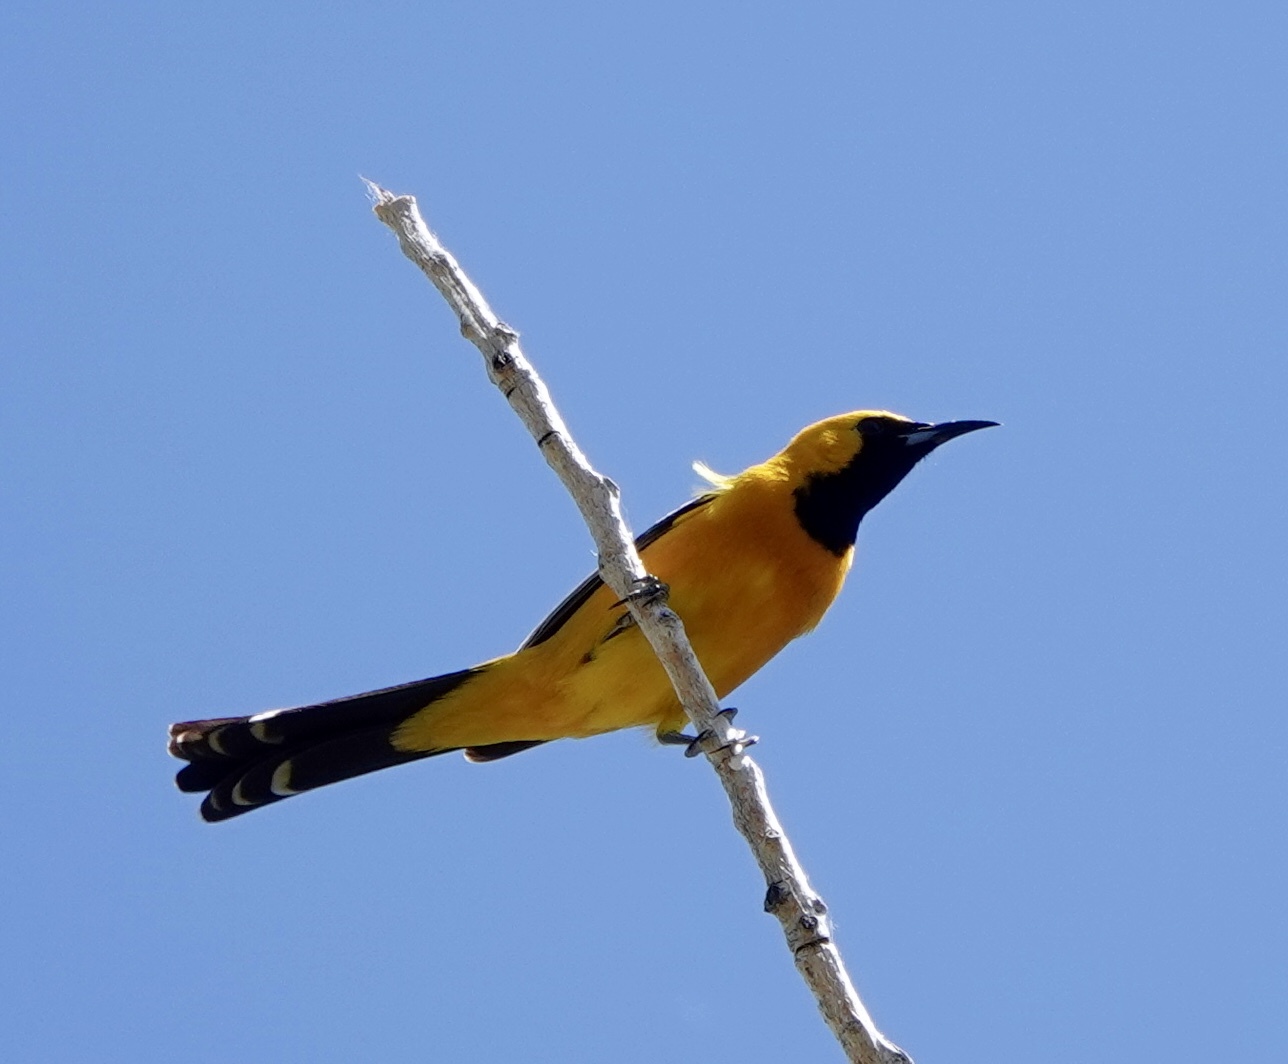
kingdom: Animalia
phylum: Chordata
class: Aves
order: Passeriformes
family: Icteridae
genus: Icterus
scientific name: Icterus cucullatus
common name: Hooded oriole
